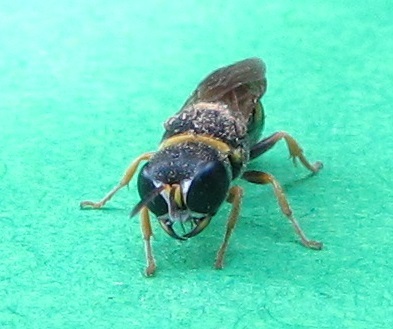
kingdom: Animalia
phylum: Arthropoda
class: Insecta
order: Hymenoptera
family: Crabronidae
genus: Ectemnius
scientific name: Ectemnius scaber
